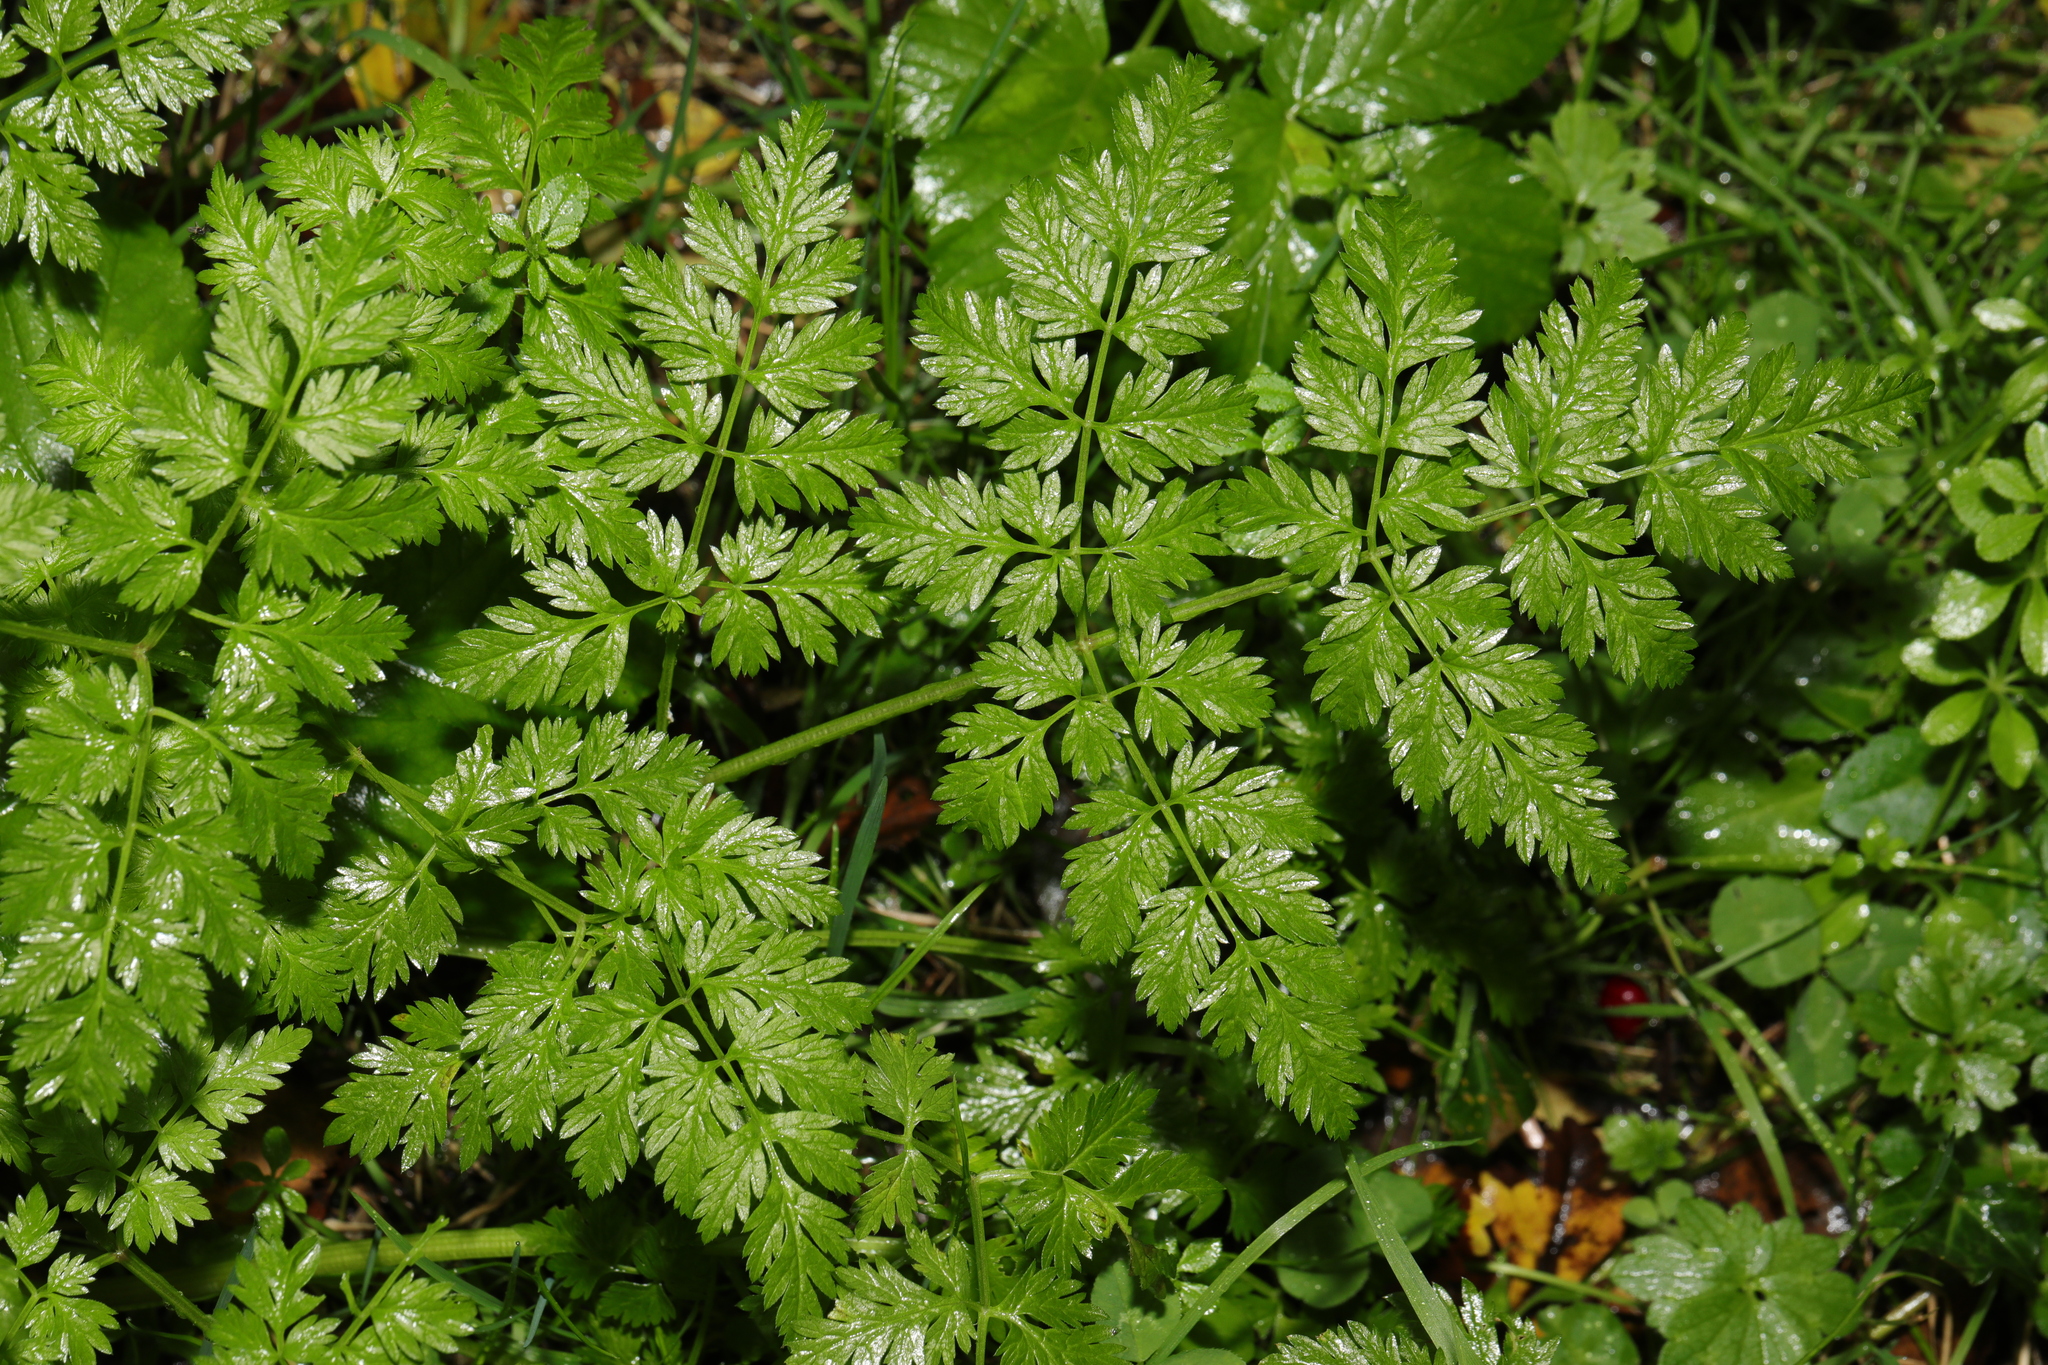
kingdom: Plantae
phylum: Tracheophyta
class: Magnoliopsida
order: Apiales
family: Apiaceae
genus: Anthriscus
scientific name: Anthriscus sylvestris
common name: Cow parsley
